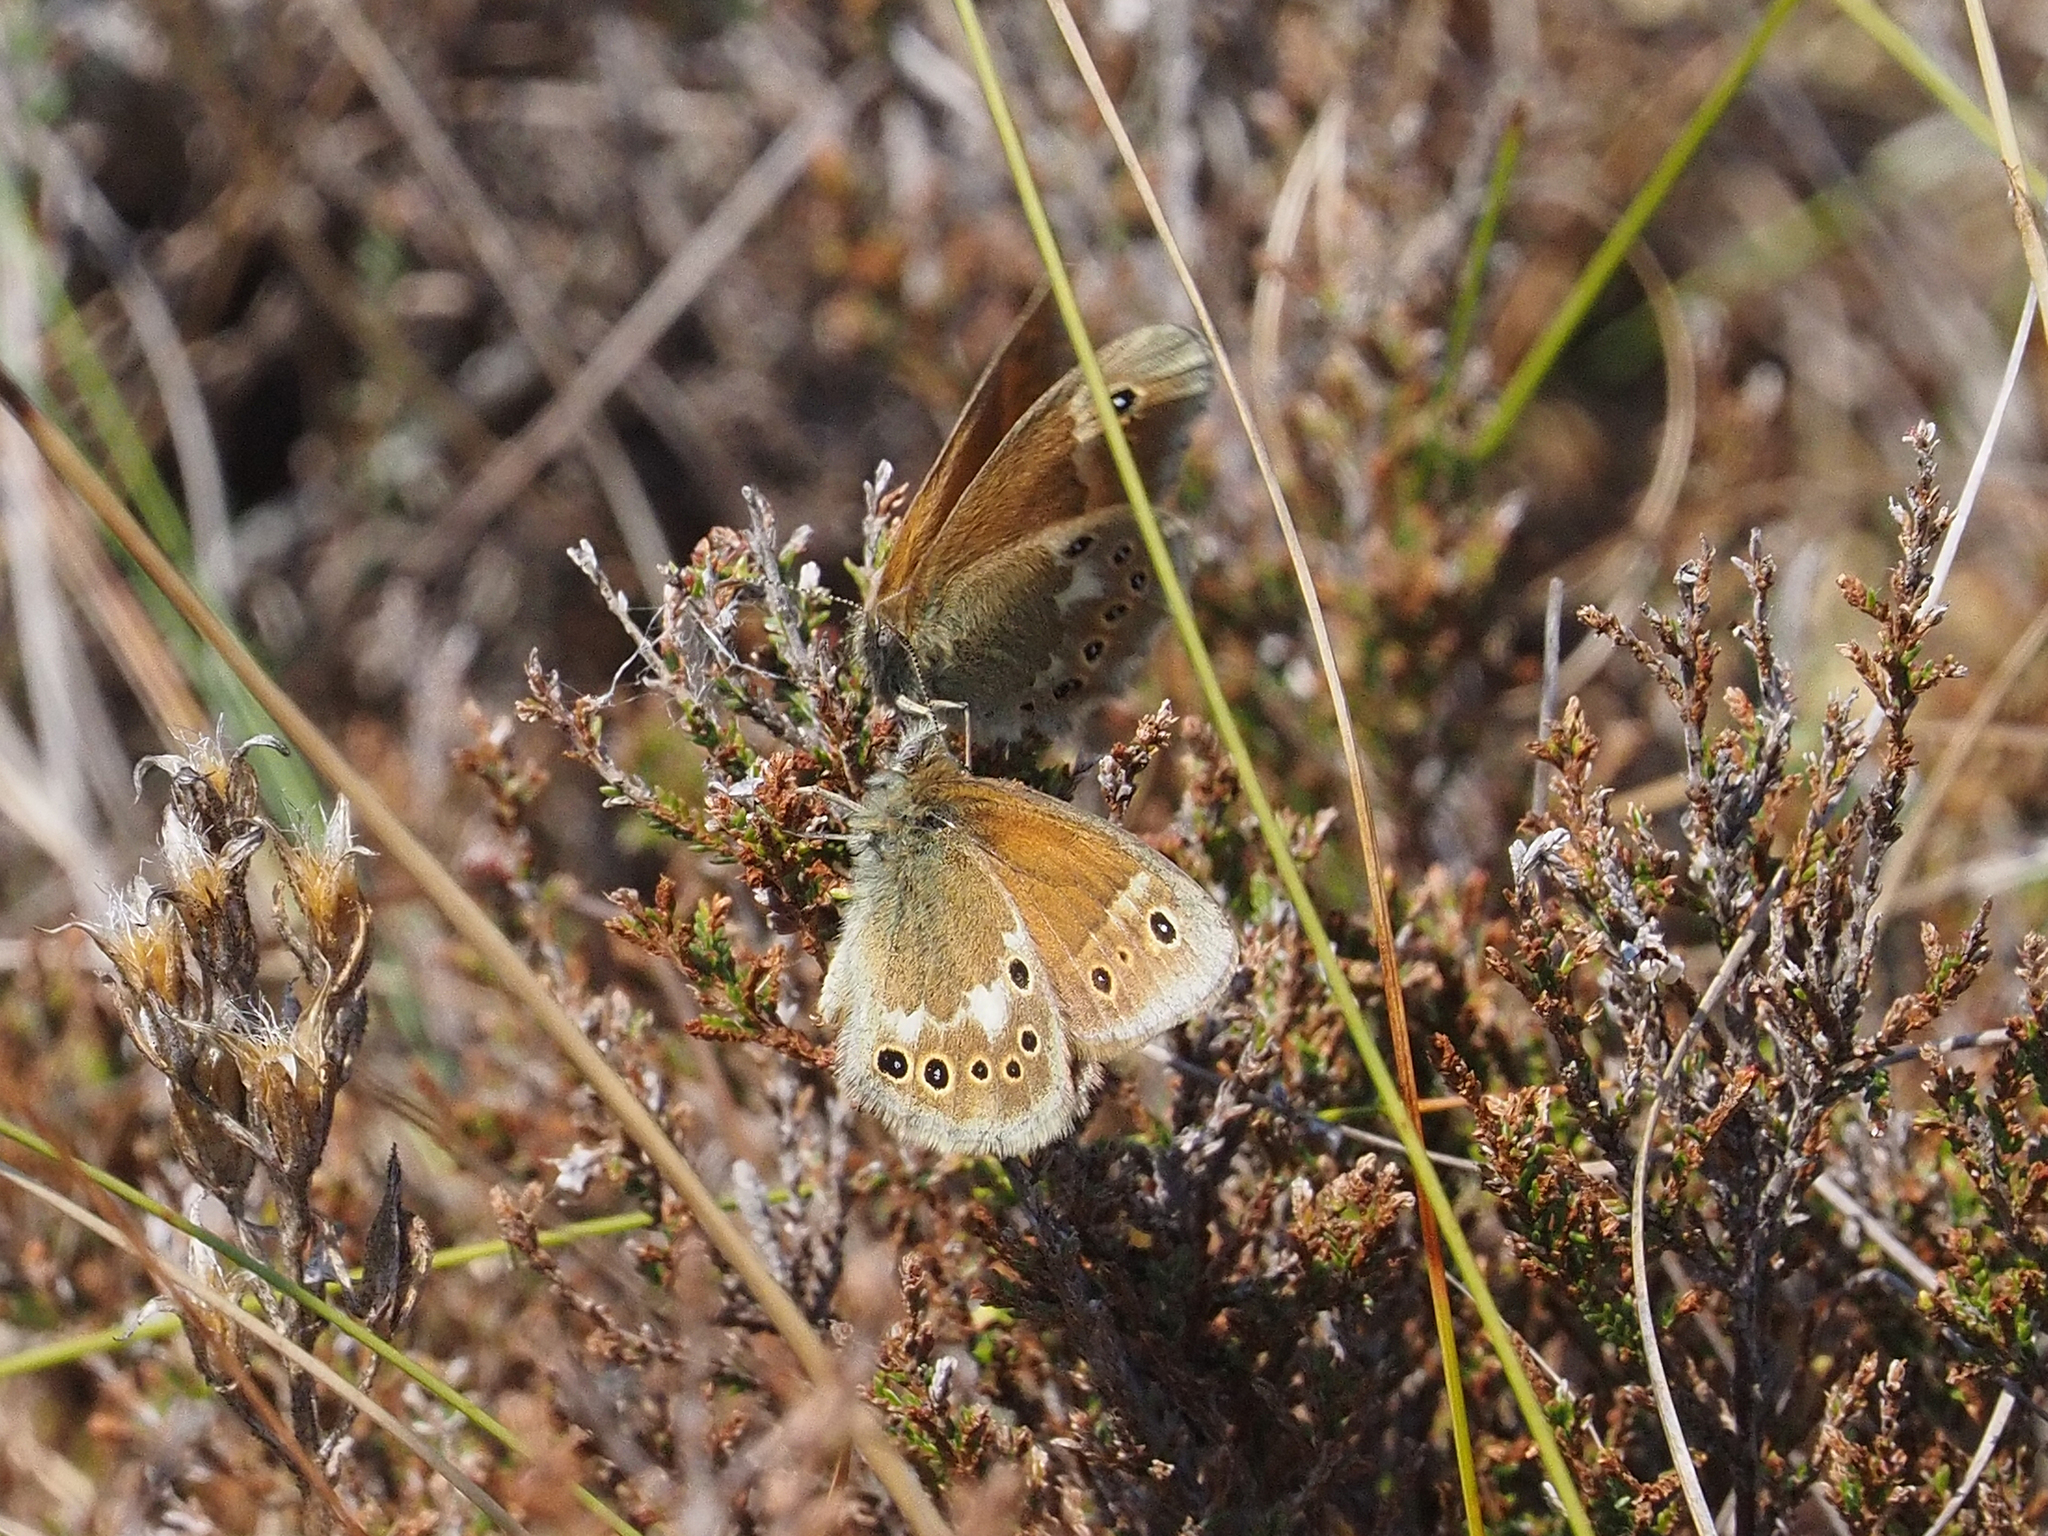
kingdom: Animalia
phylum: Arthropoda
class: Insecta
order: Lepidoptera
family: Nymphalidae
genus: Coenonympha
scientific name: Coenonympha tullia
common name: Large heath
